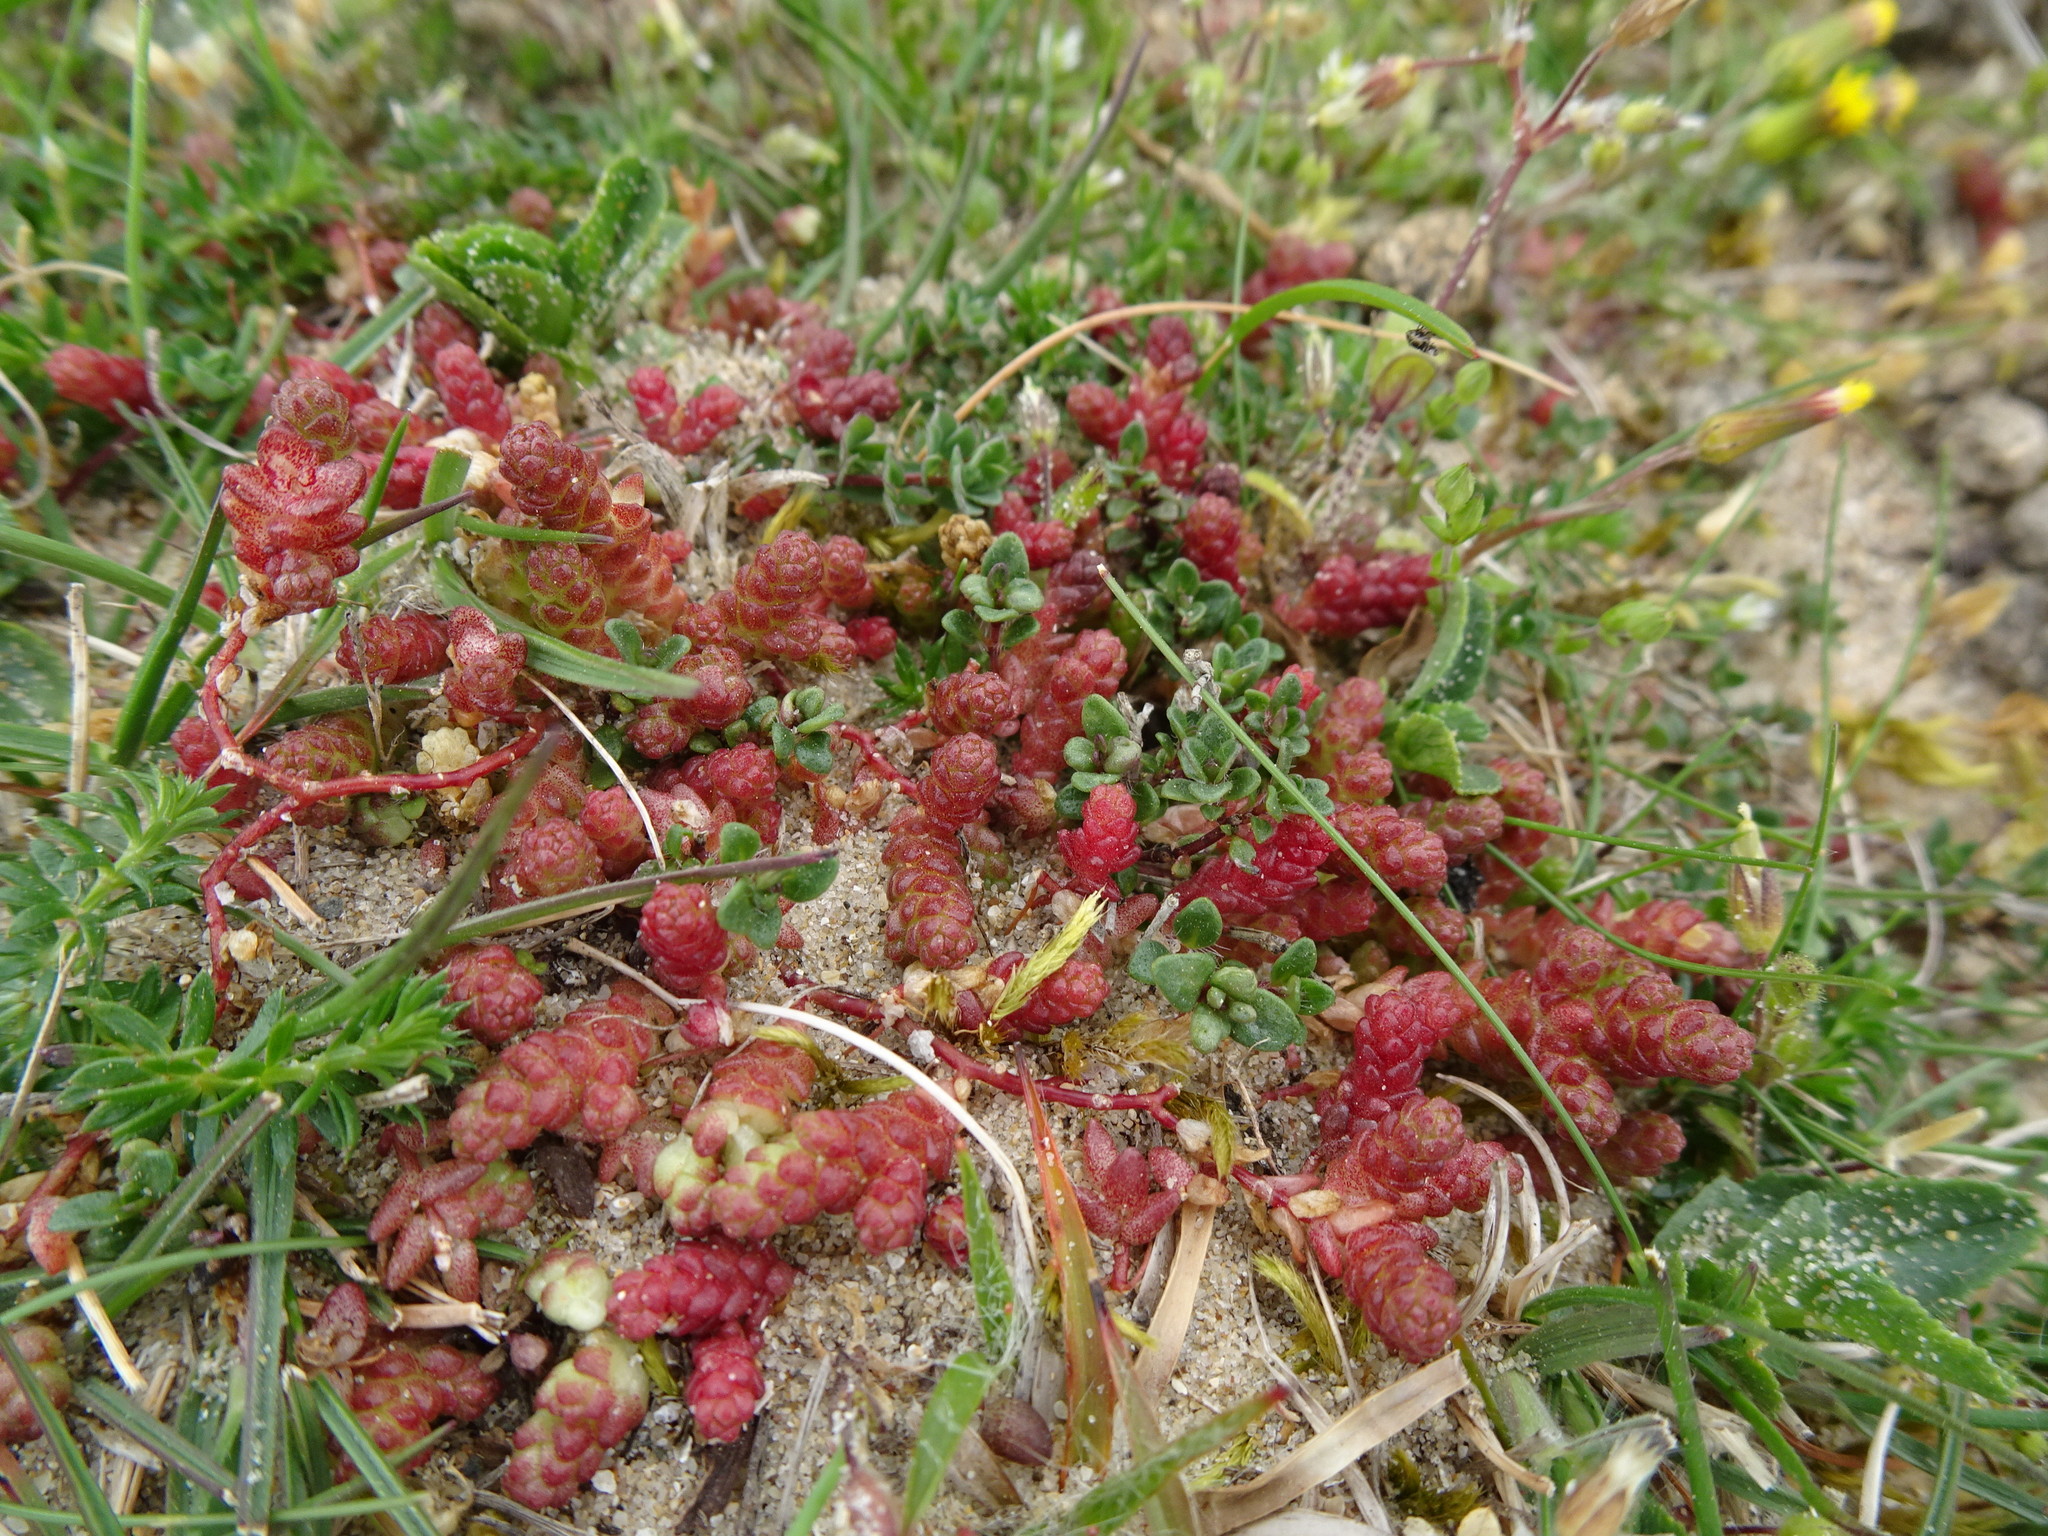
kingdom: Plantae
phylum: Tracheophyta
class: Magnoliopsida
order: Saxifragales
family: Crassulaceae
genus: Sedum
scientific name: Sedum acre
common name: Biting stonecrop
